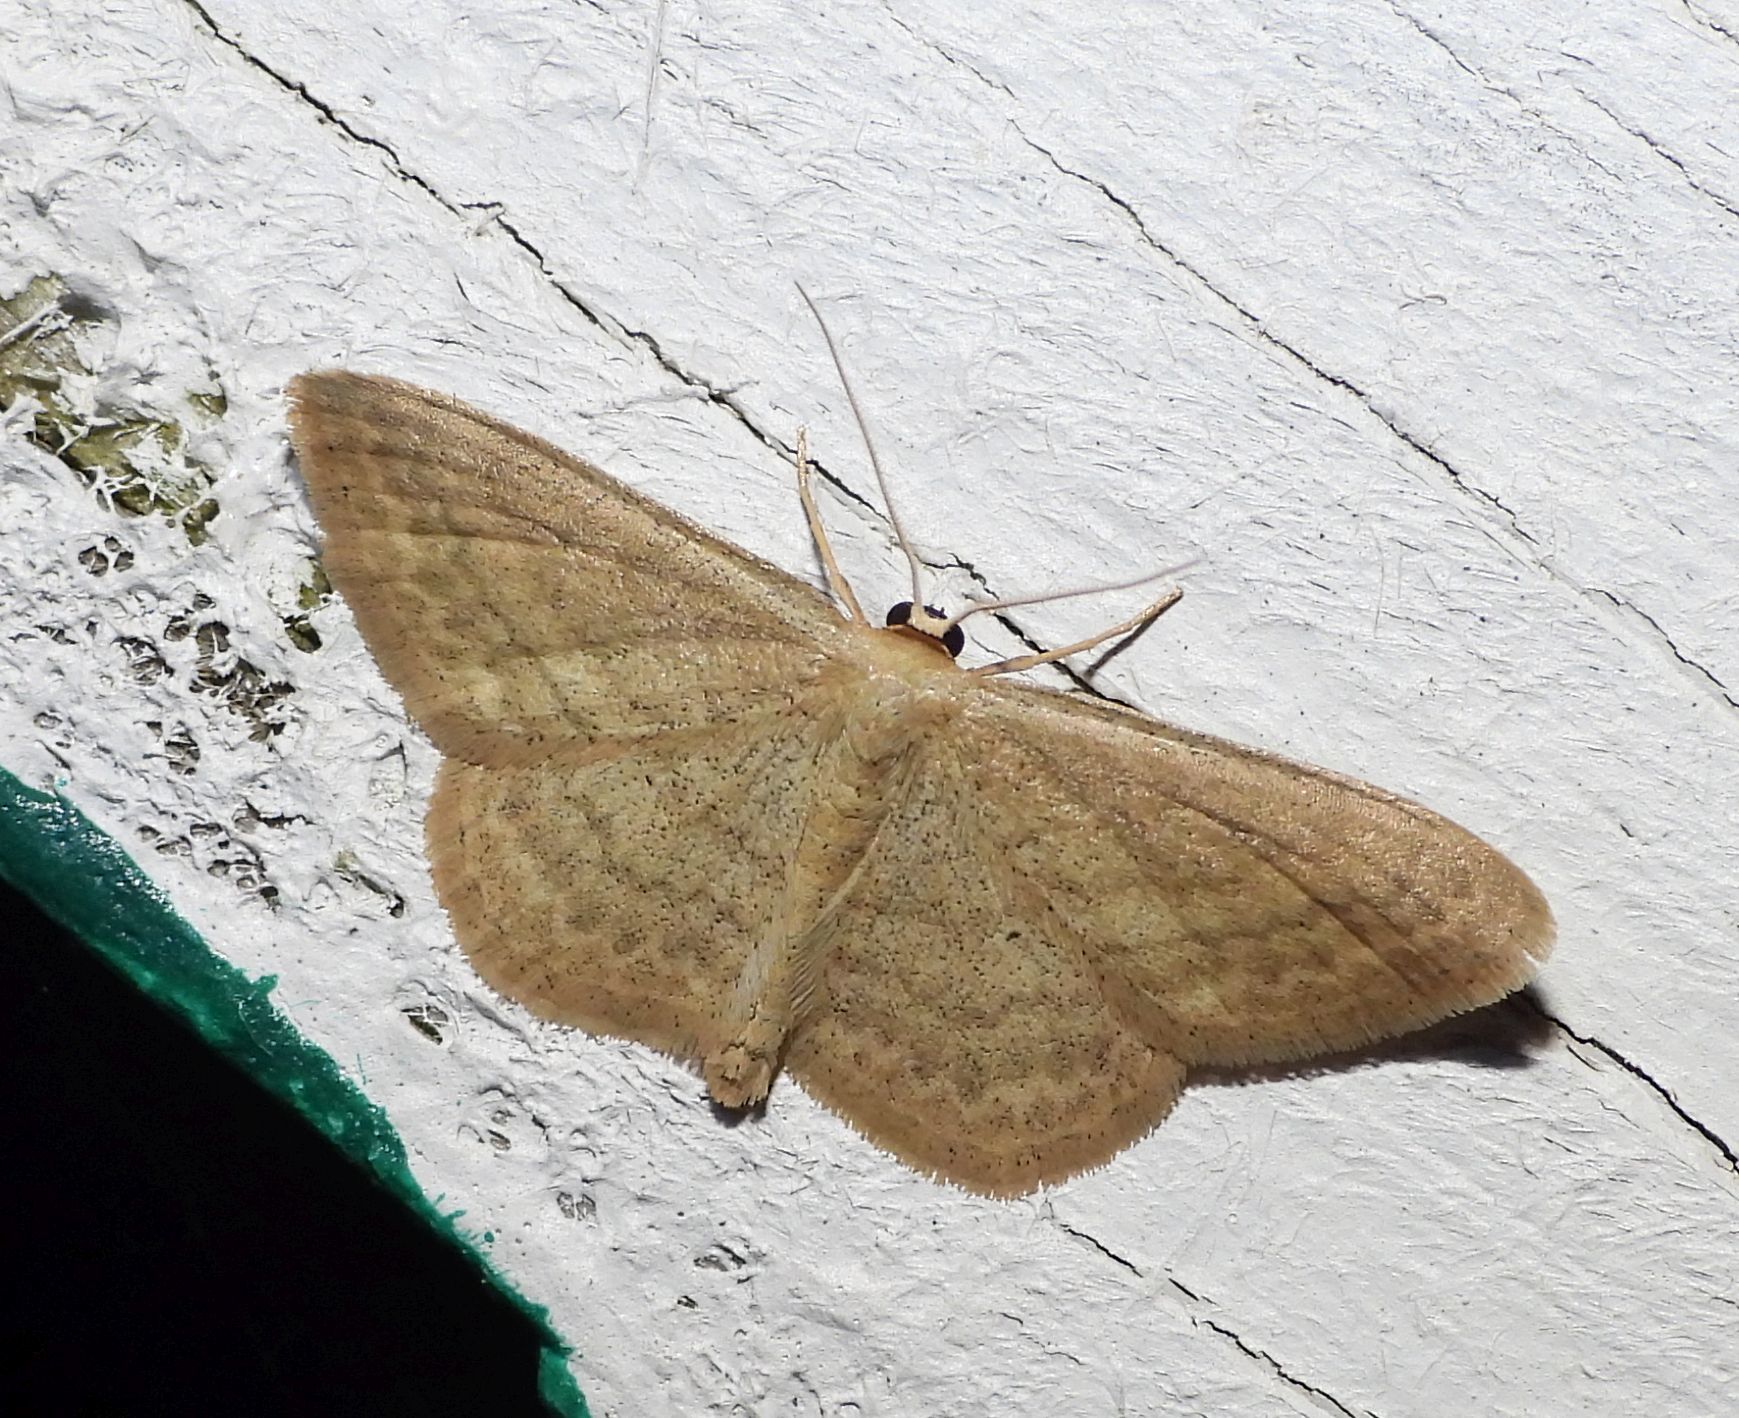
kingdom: Animalia
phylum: Arthropoda
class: Insecta
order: Lepidoptera
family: Geometridae
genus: Scopula
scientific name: Scopula inductata
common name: Soft-lined wave
